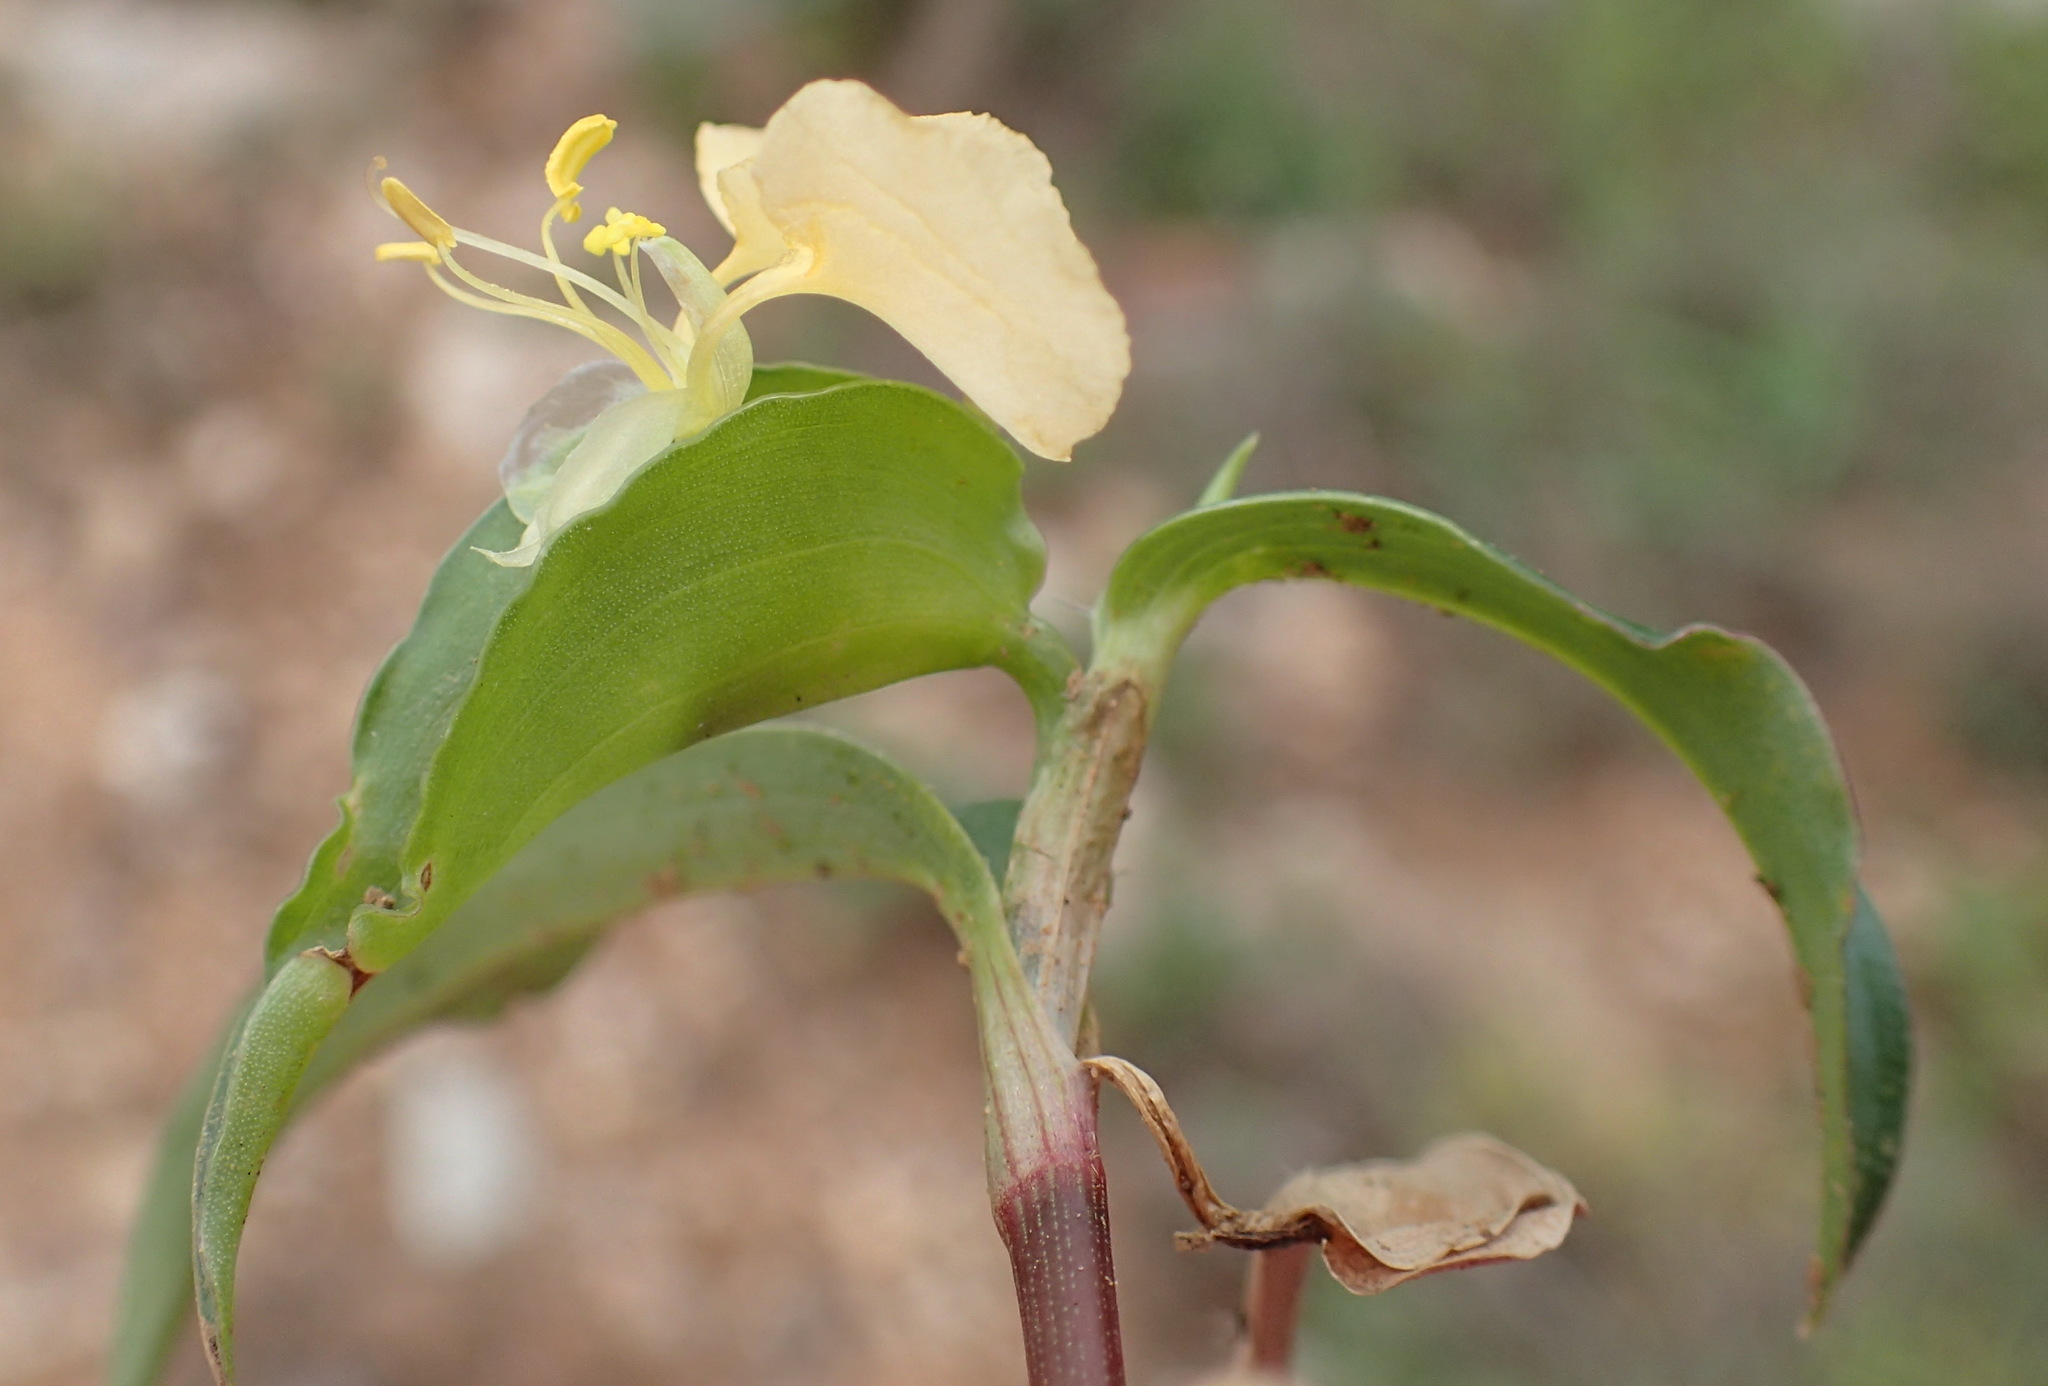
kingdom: Plantae
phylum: Tracheophyta
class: Liliopsida
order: Commelinales
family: Commelinaceae
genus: Commelina
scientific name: Commelina africana
